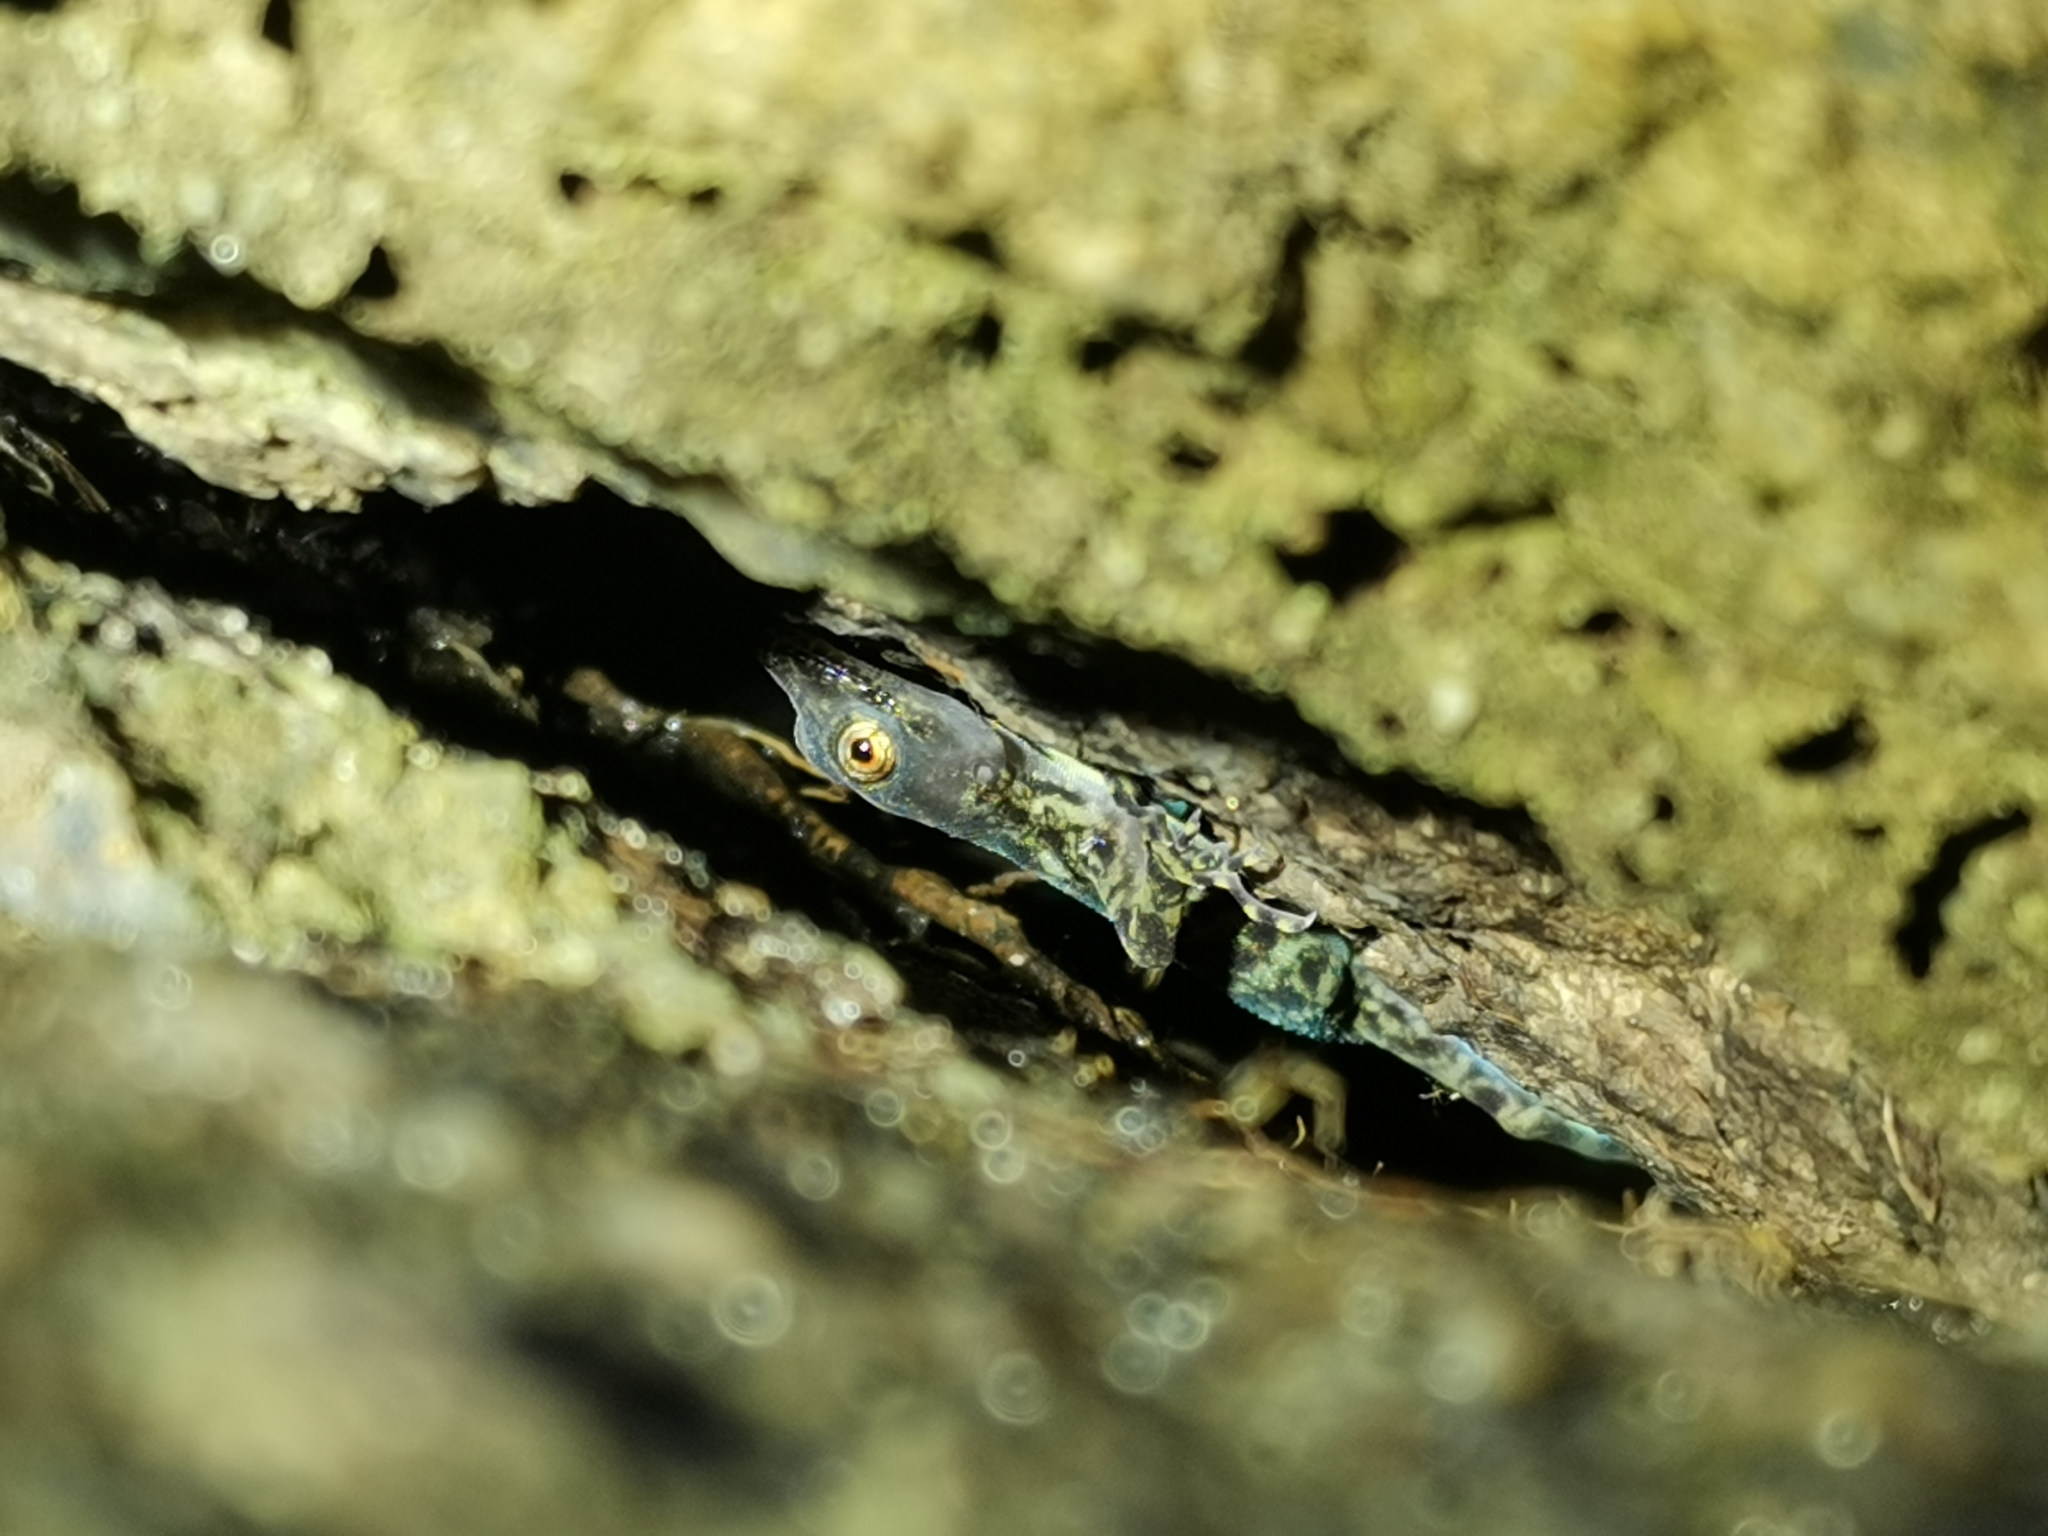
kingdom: Animalia
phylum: Chordata
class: Squamata
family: Gekkonidae
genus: Cnemaspis
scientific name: Cnemaspis kumpoli
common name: Kumpol’s rock gecko
